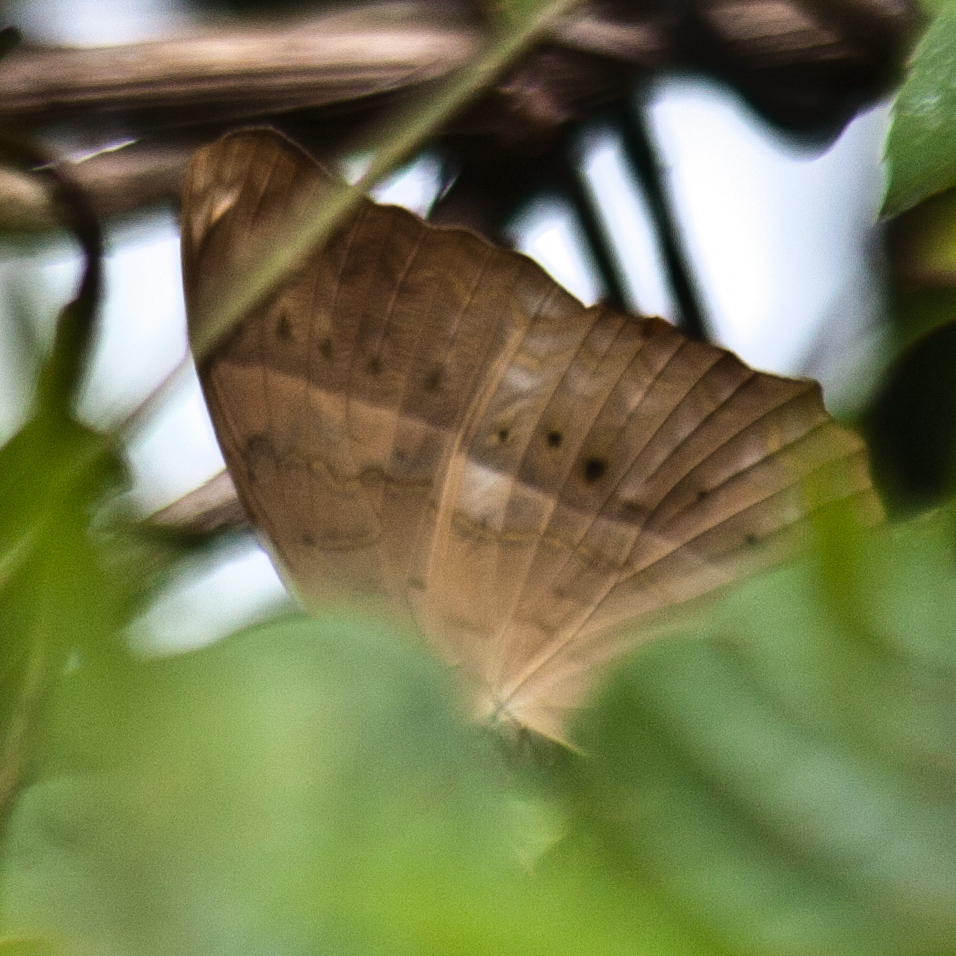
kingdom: Animalia
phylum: Arthropoda
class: Insecta
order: Lepidoptera
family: Nymphalidae
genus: Cirrochroa
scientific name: Cirrochroa tyche
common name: Common yeoman
